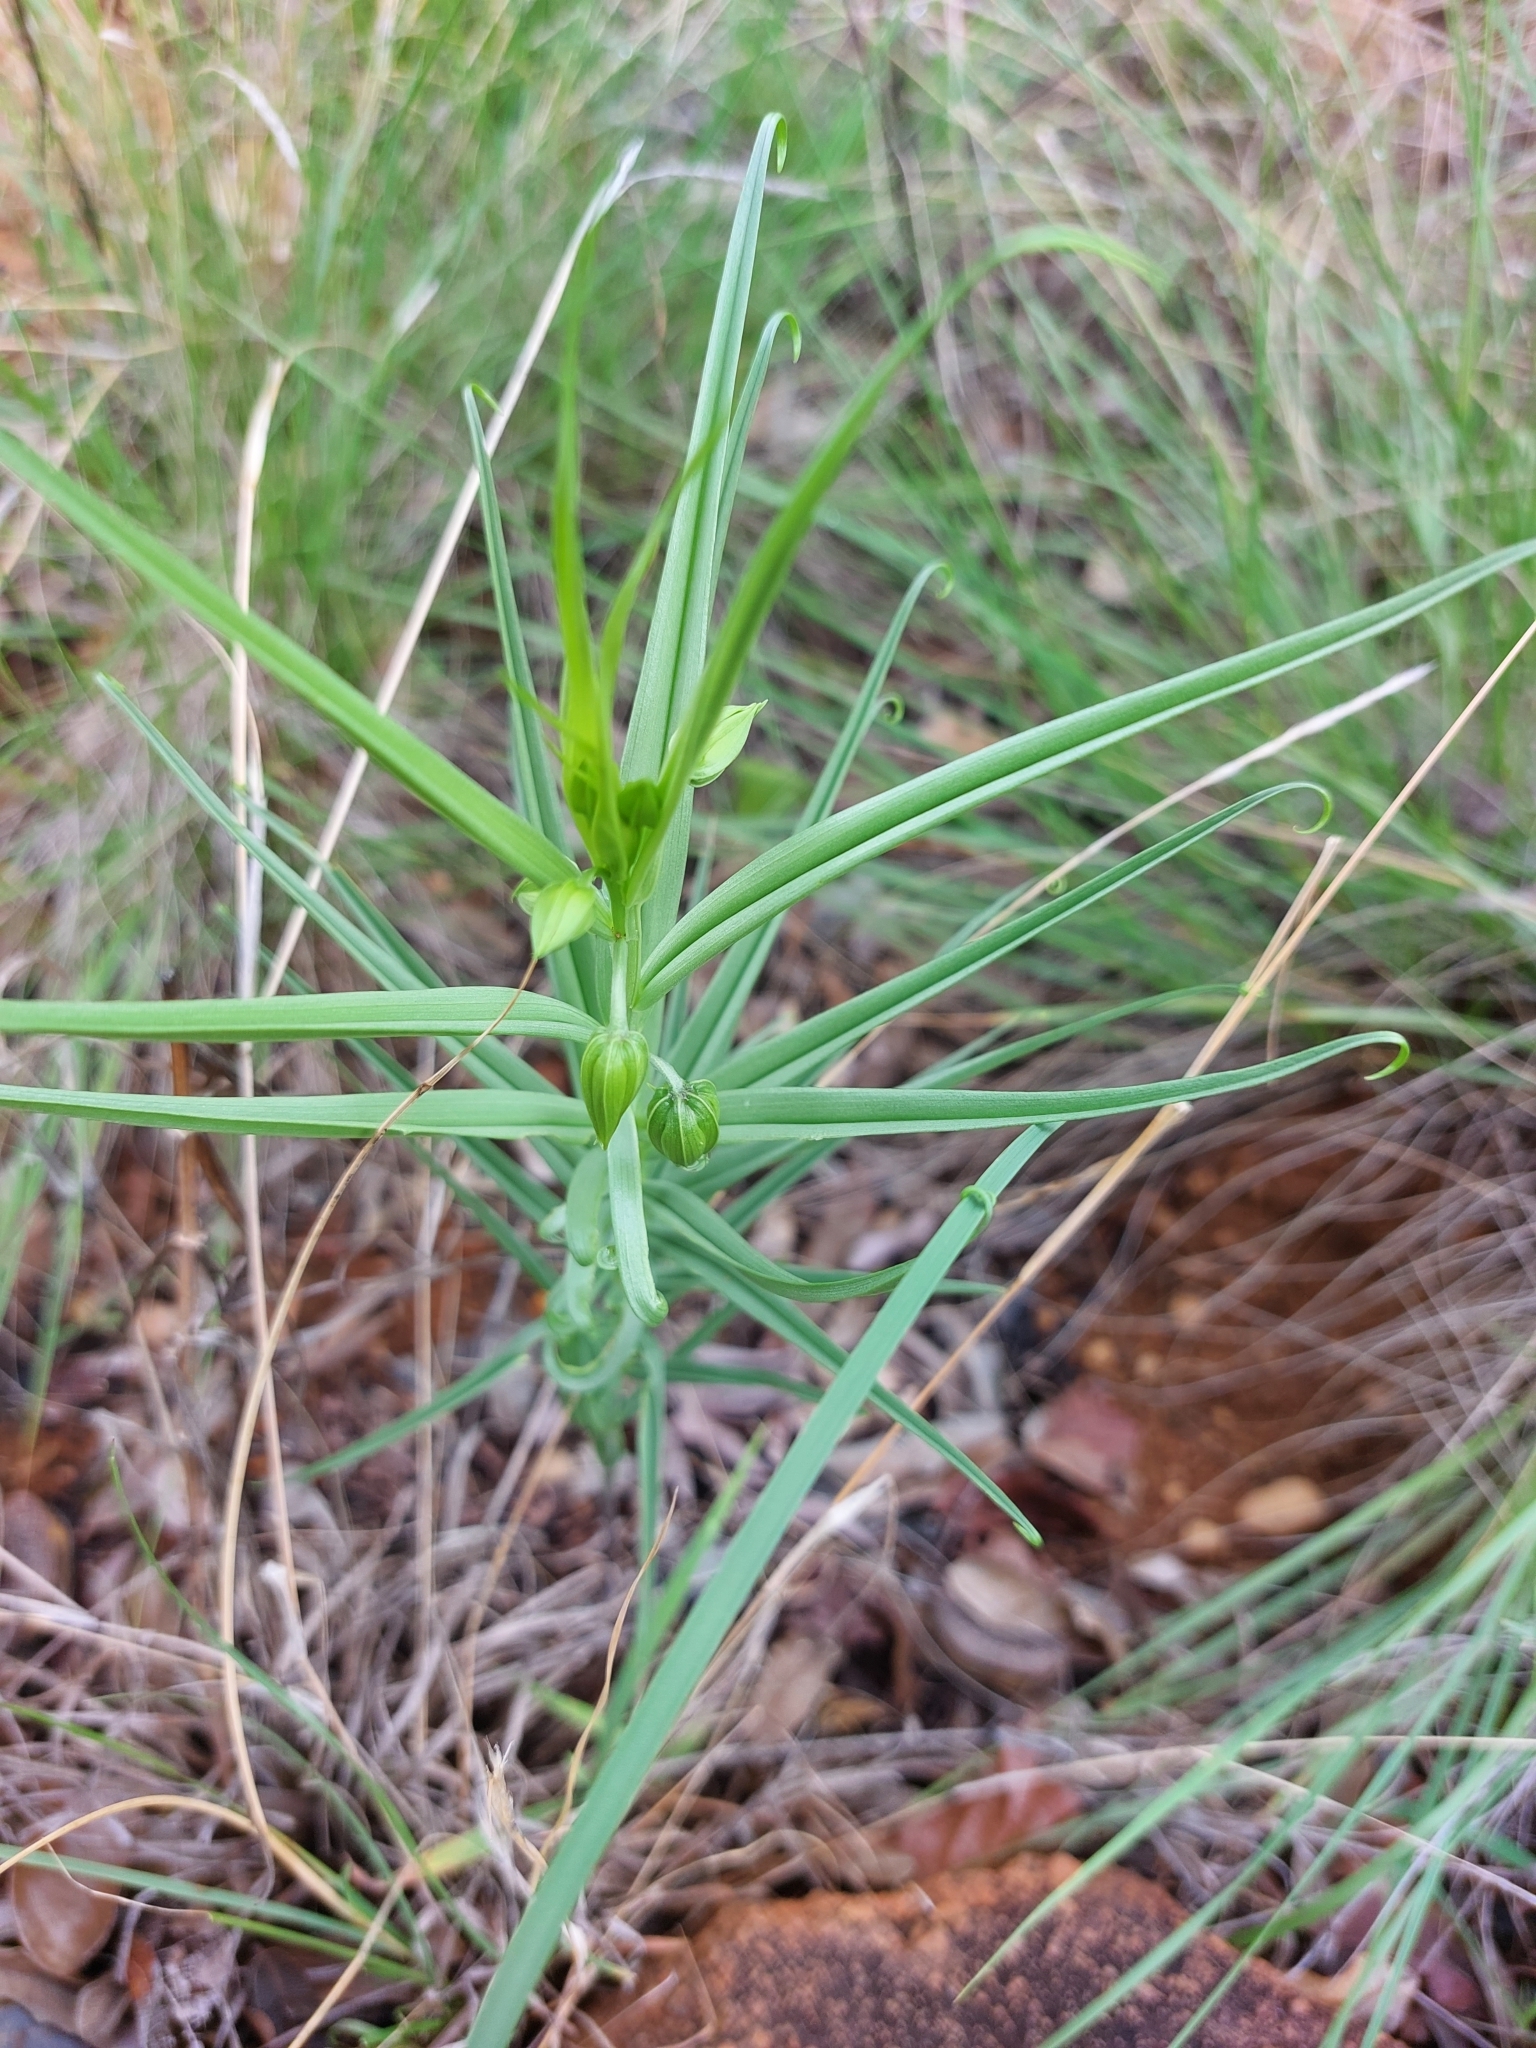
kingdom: Plantae
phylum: Tracheophyta
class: Liliopsida
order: Liliales
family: Colchicaceae
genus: Gloriosa
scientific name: Gloriosa rigidifolia
